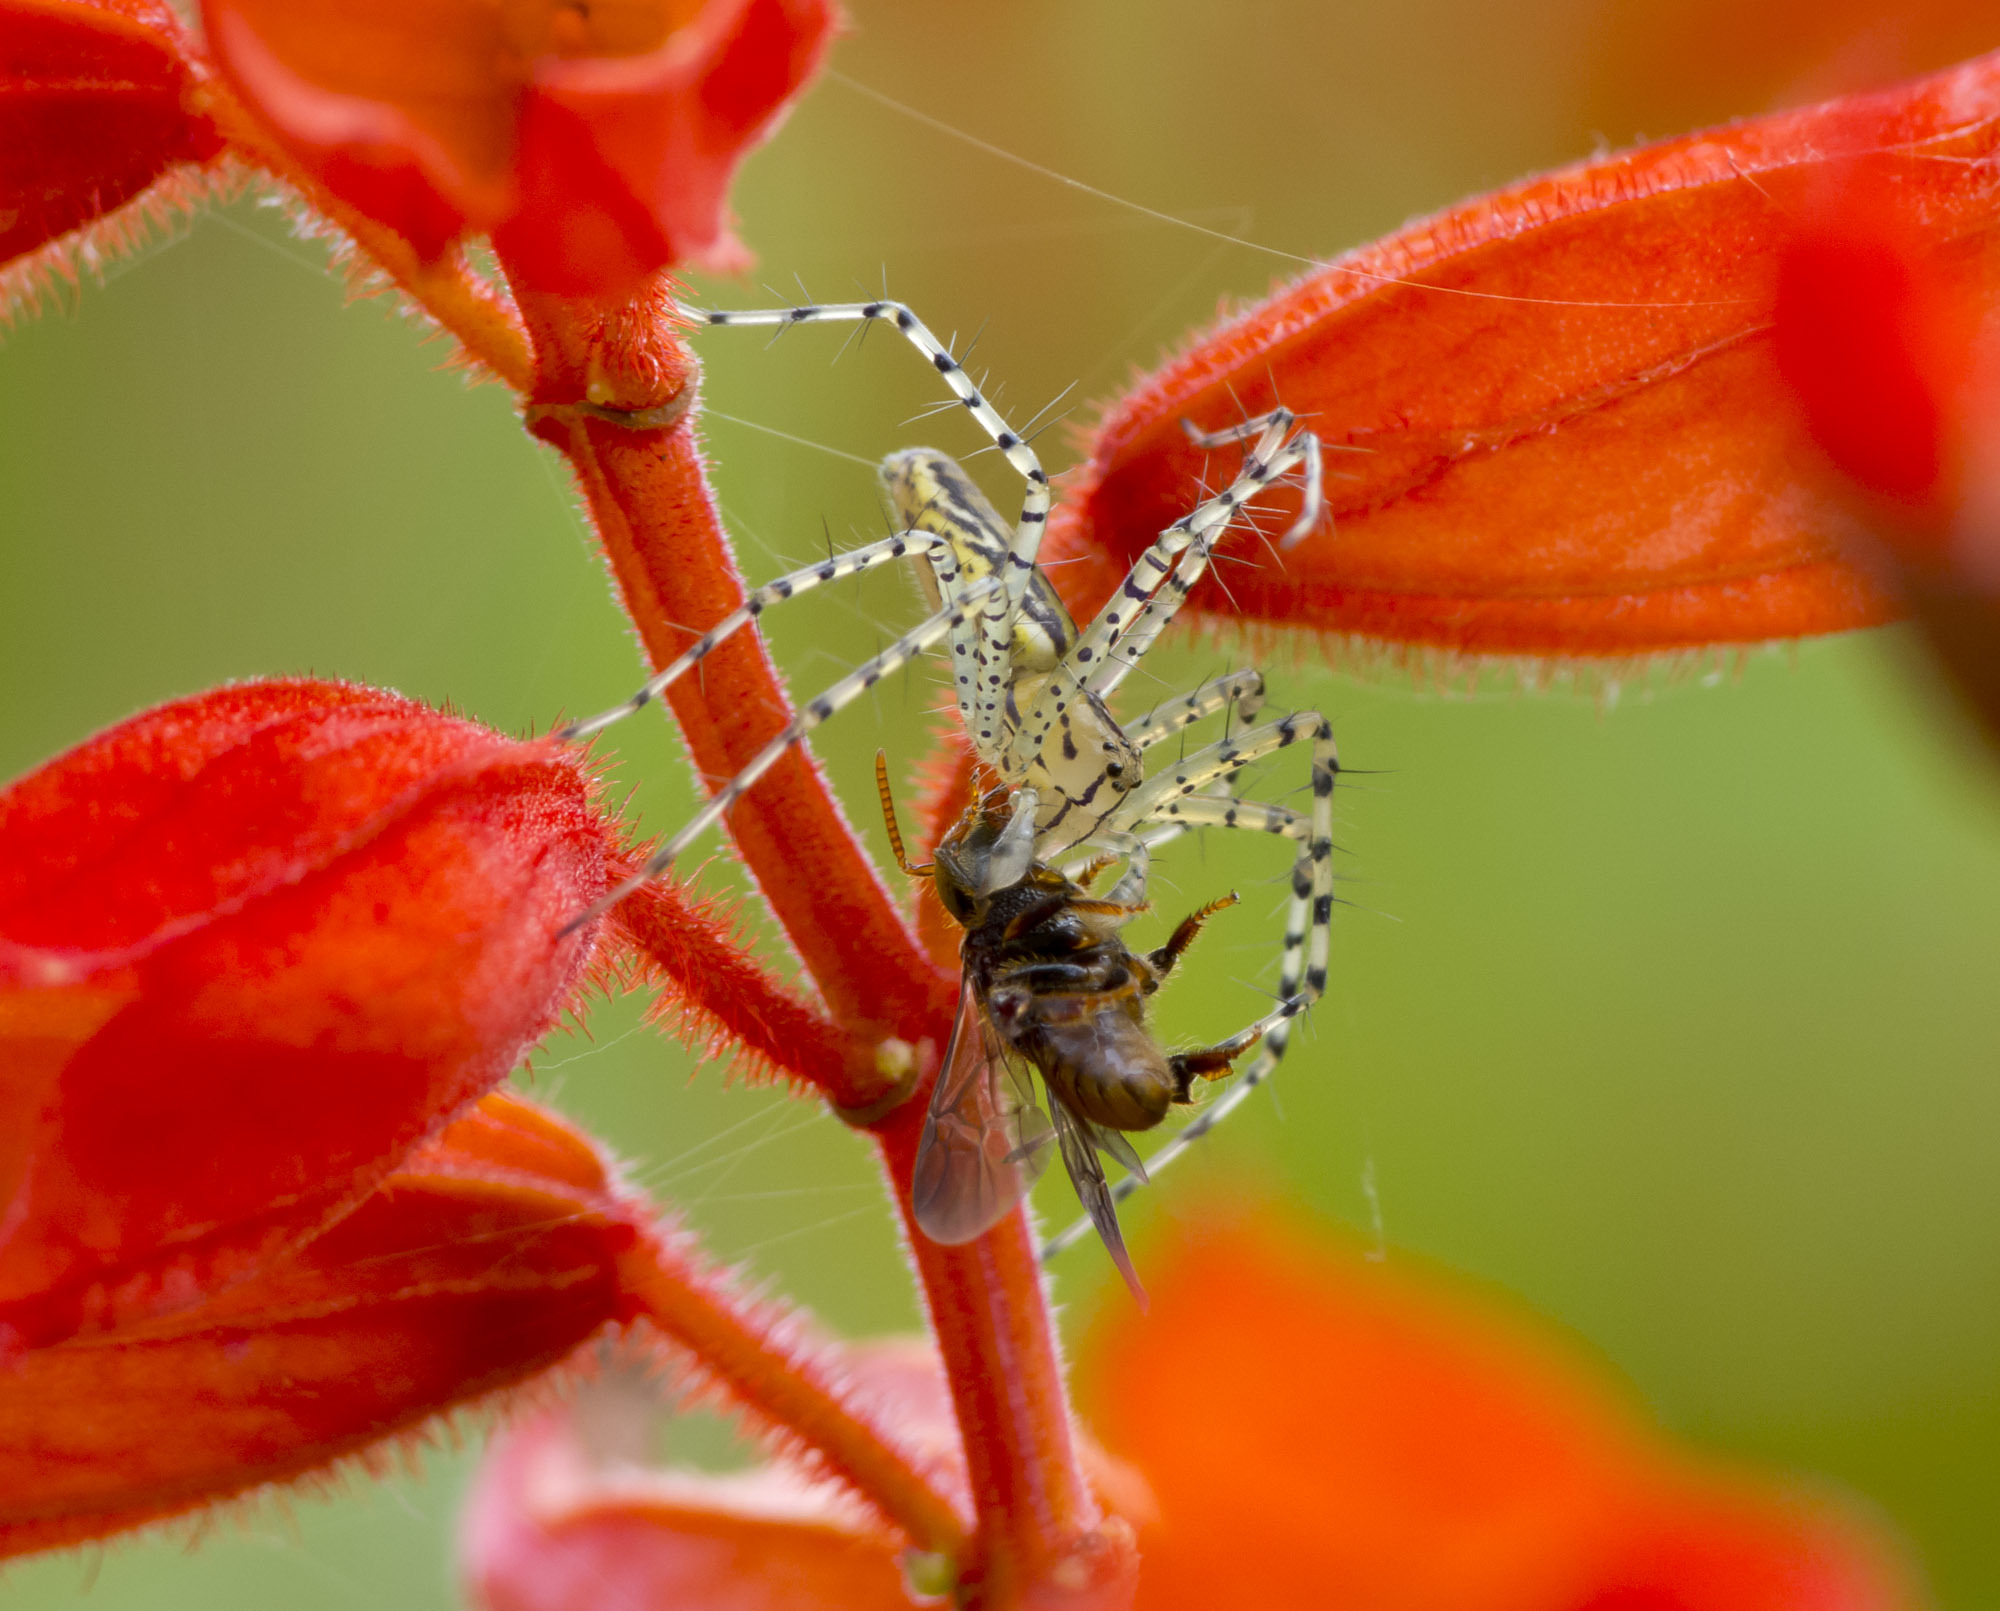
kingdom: Animalia
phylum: Arthropoda
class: Arachnida
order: Araneae
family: Oxyopidae
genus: Peucetia
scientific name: Peucetia rubrolineata
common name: Lynx spiders
